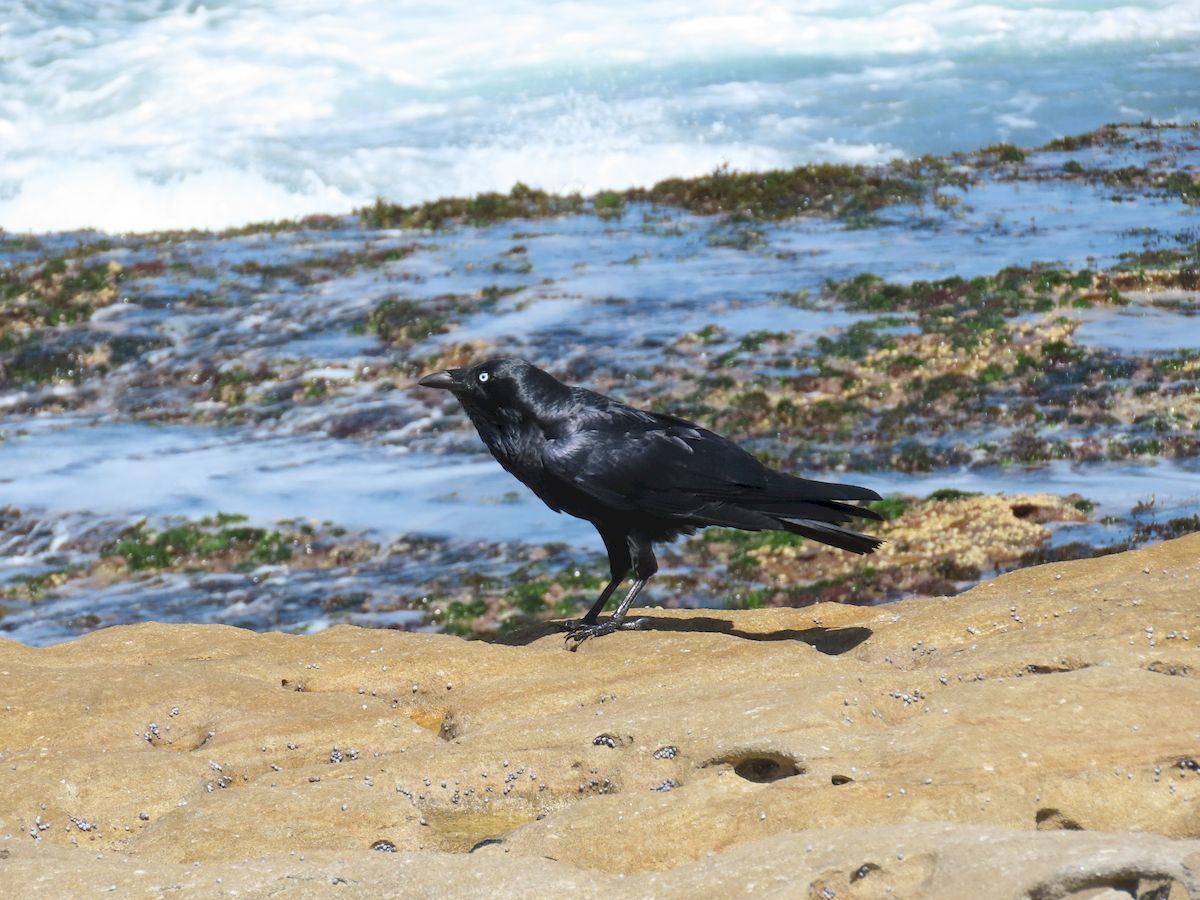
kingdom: Animalia
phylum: Chordata
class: Aves
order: Passeriformes
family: Corvidae
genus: Corvus
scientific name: Corvus coronoides
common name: Australian raven
